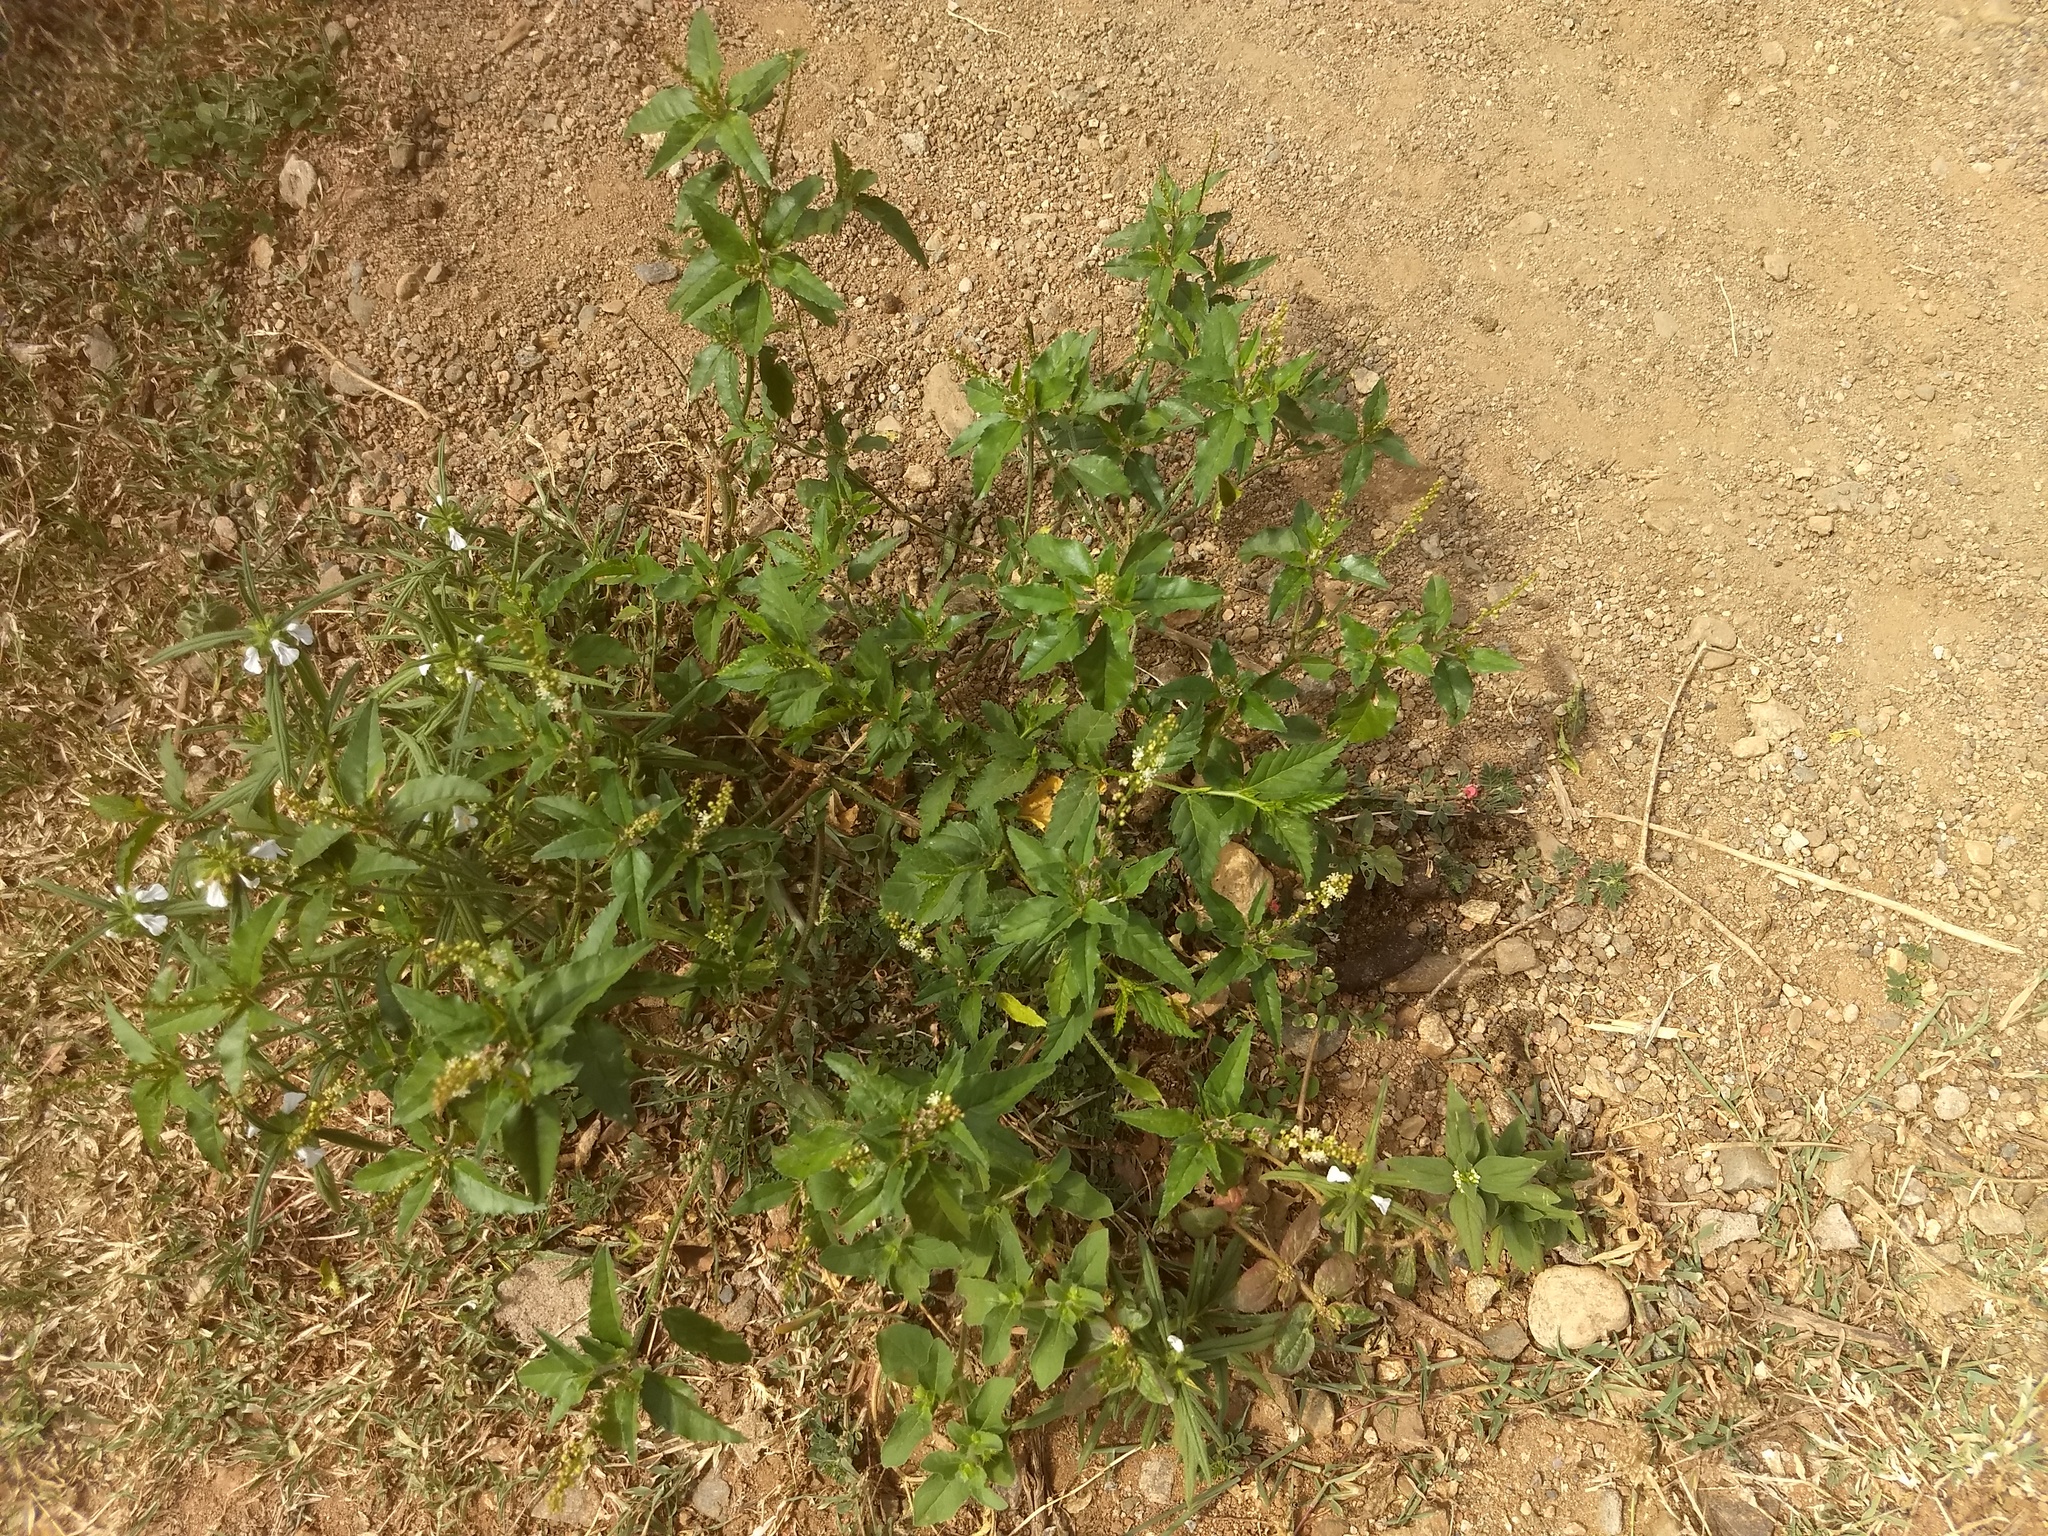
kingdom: Plantae
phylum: Tracheophyta
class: Magnoliopsida
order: Malpighiales
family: Euphorbiaceae
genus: Croton
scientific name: Croton bonplandianus
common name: Bonpland's croton
